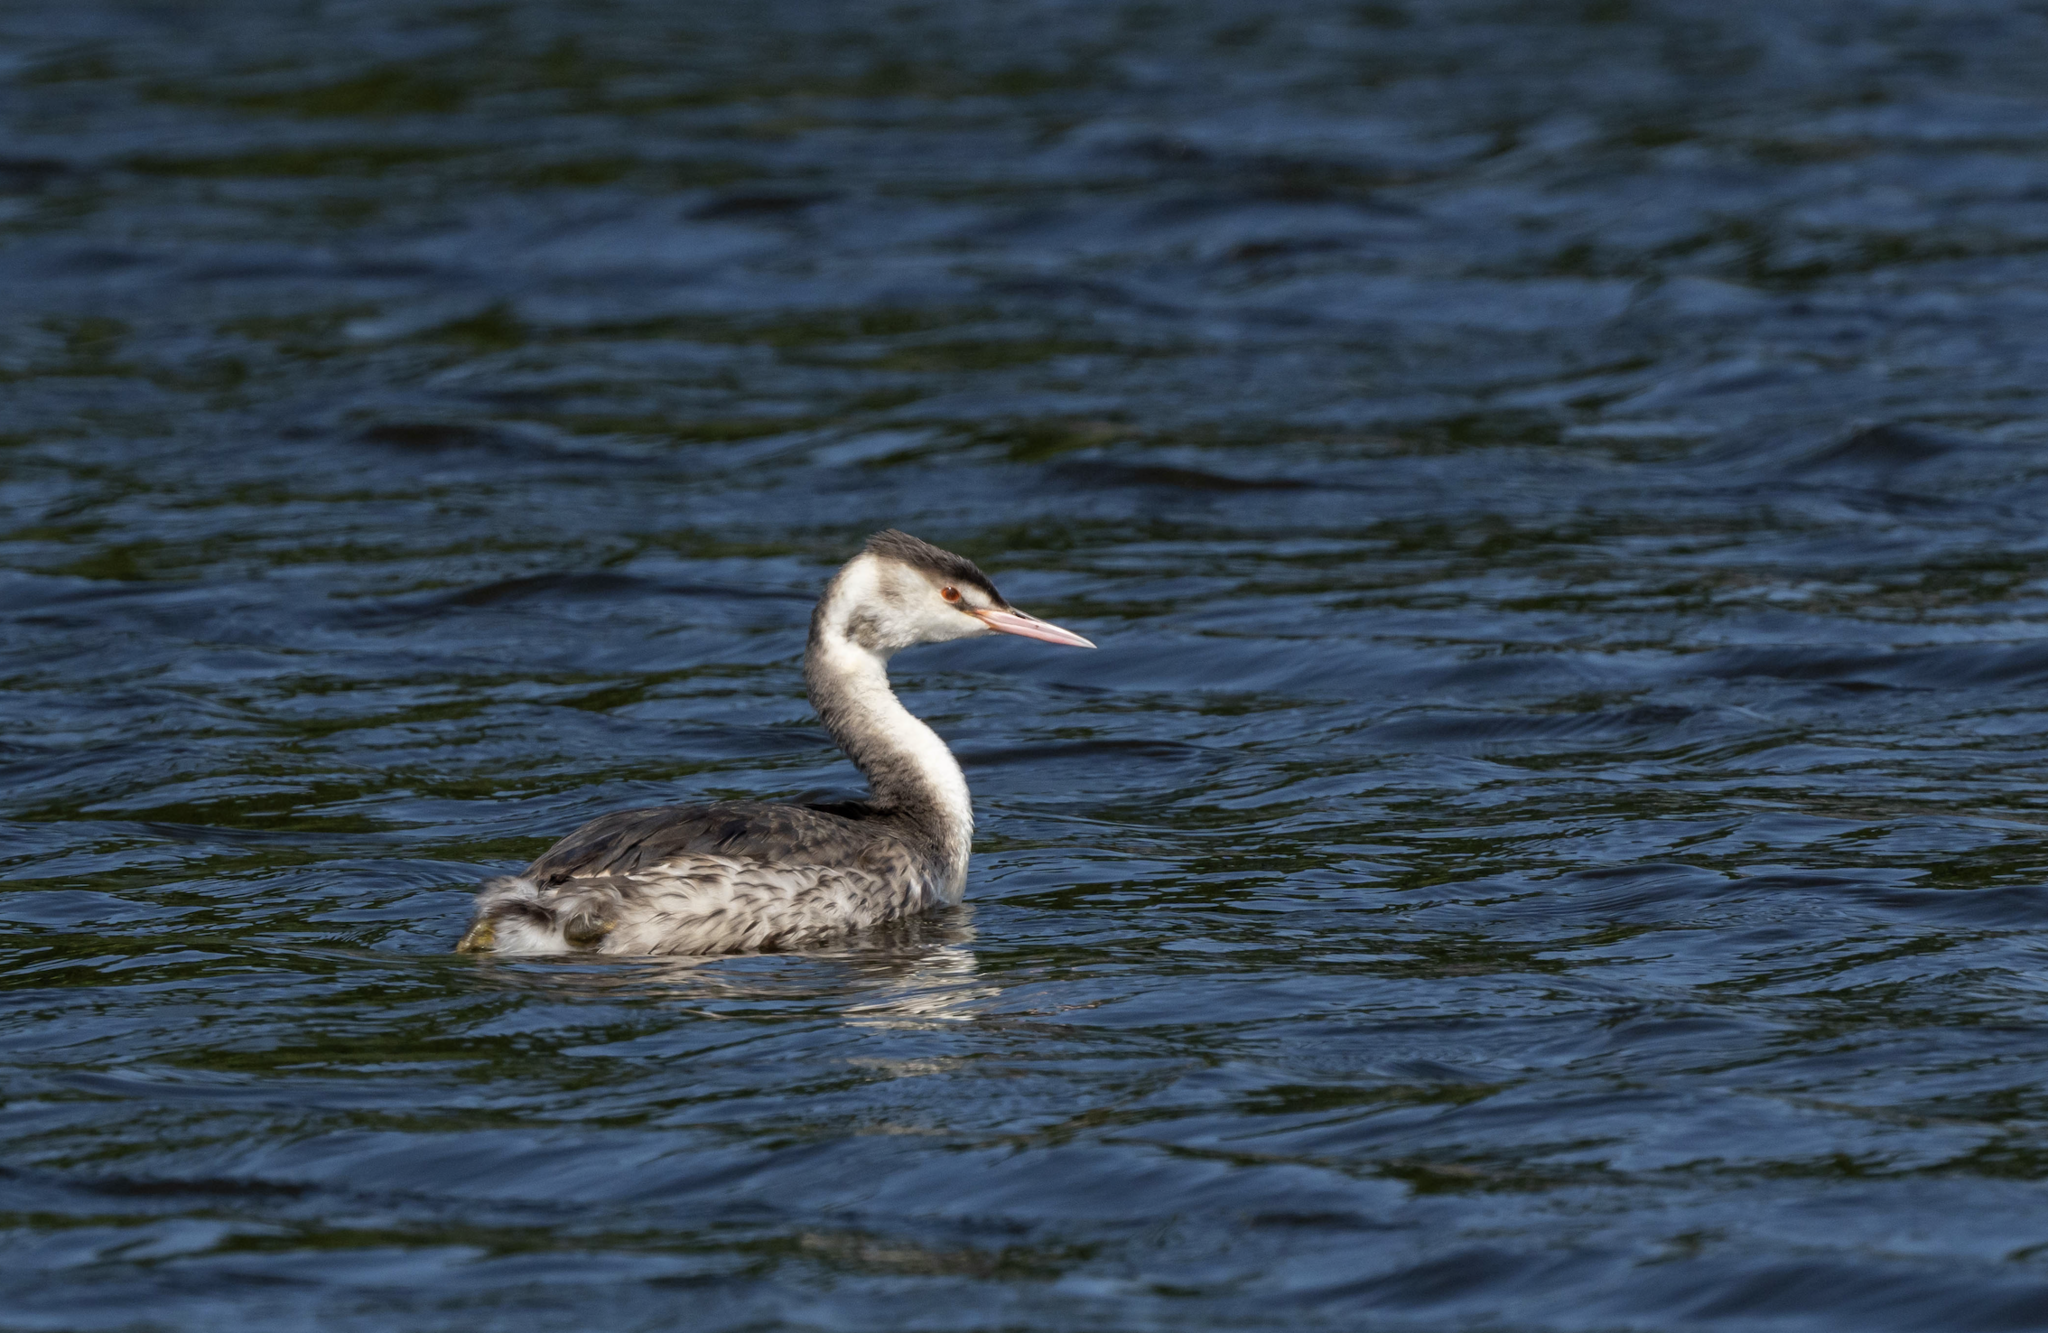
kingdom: Animalia
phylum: Chordata
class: Aves
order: Podicipediformes
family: Podicipedidae
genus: Podiceps
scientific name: Podiceps cristatus
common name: Great crested grebe
